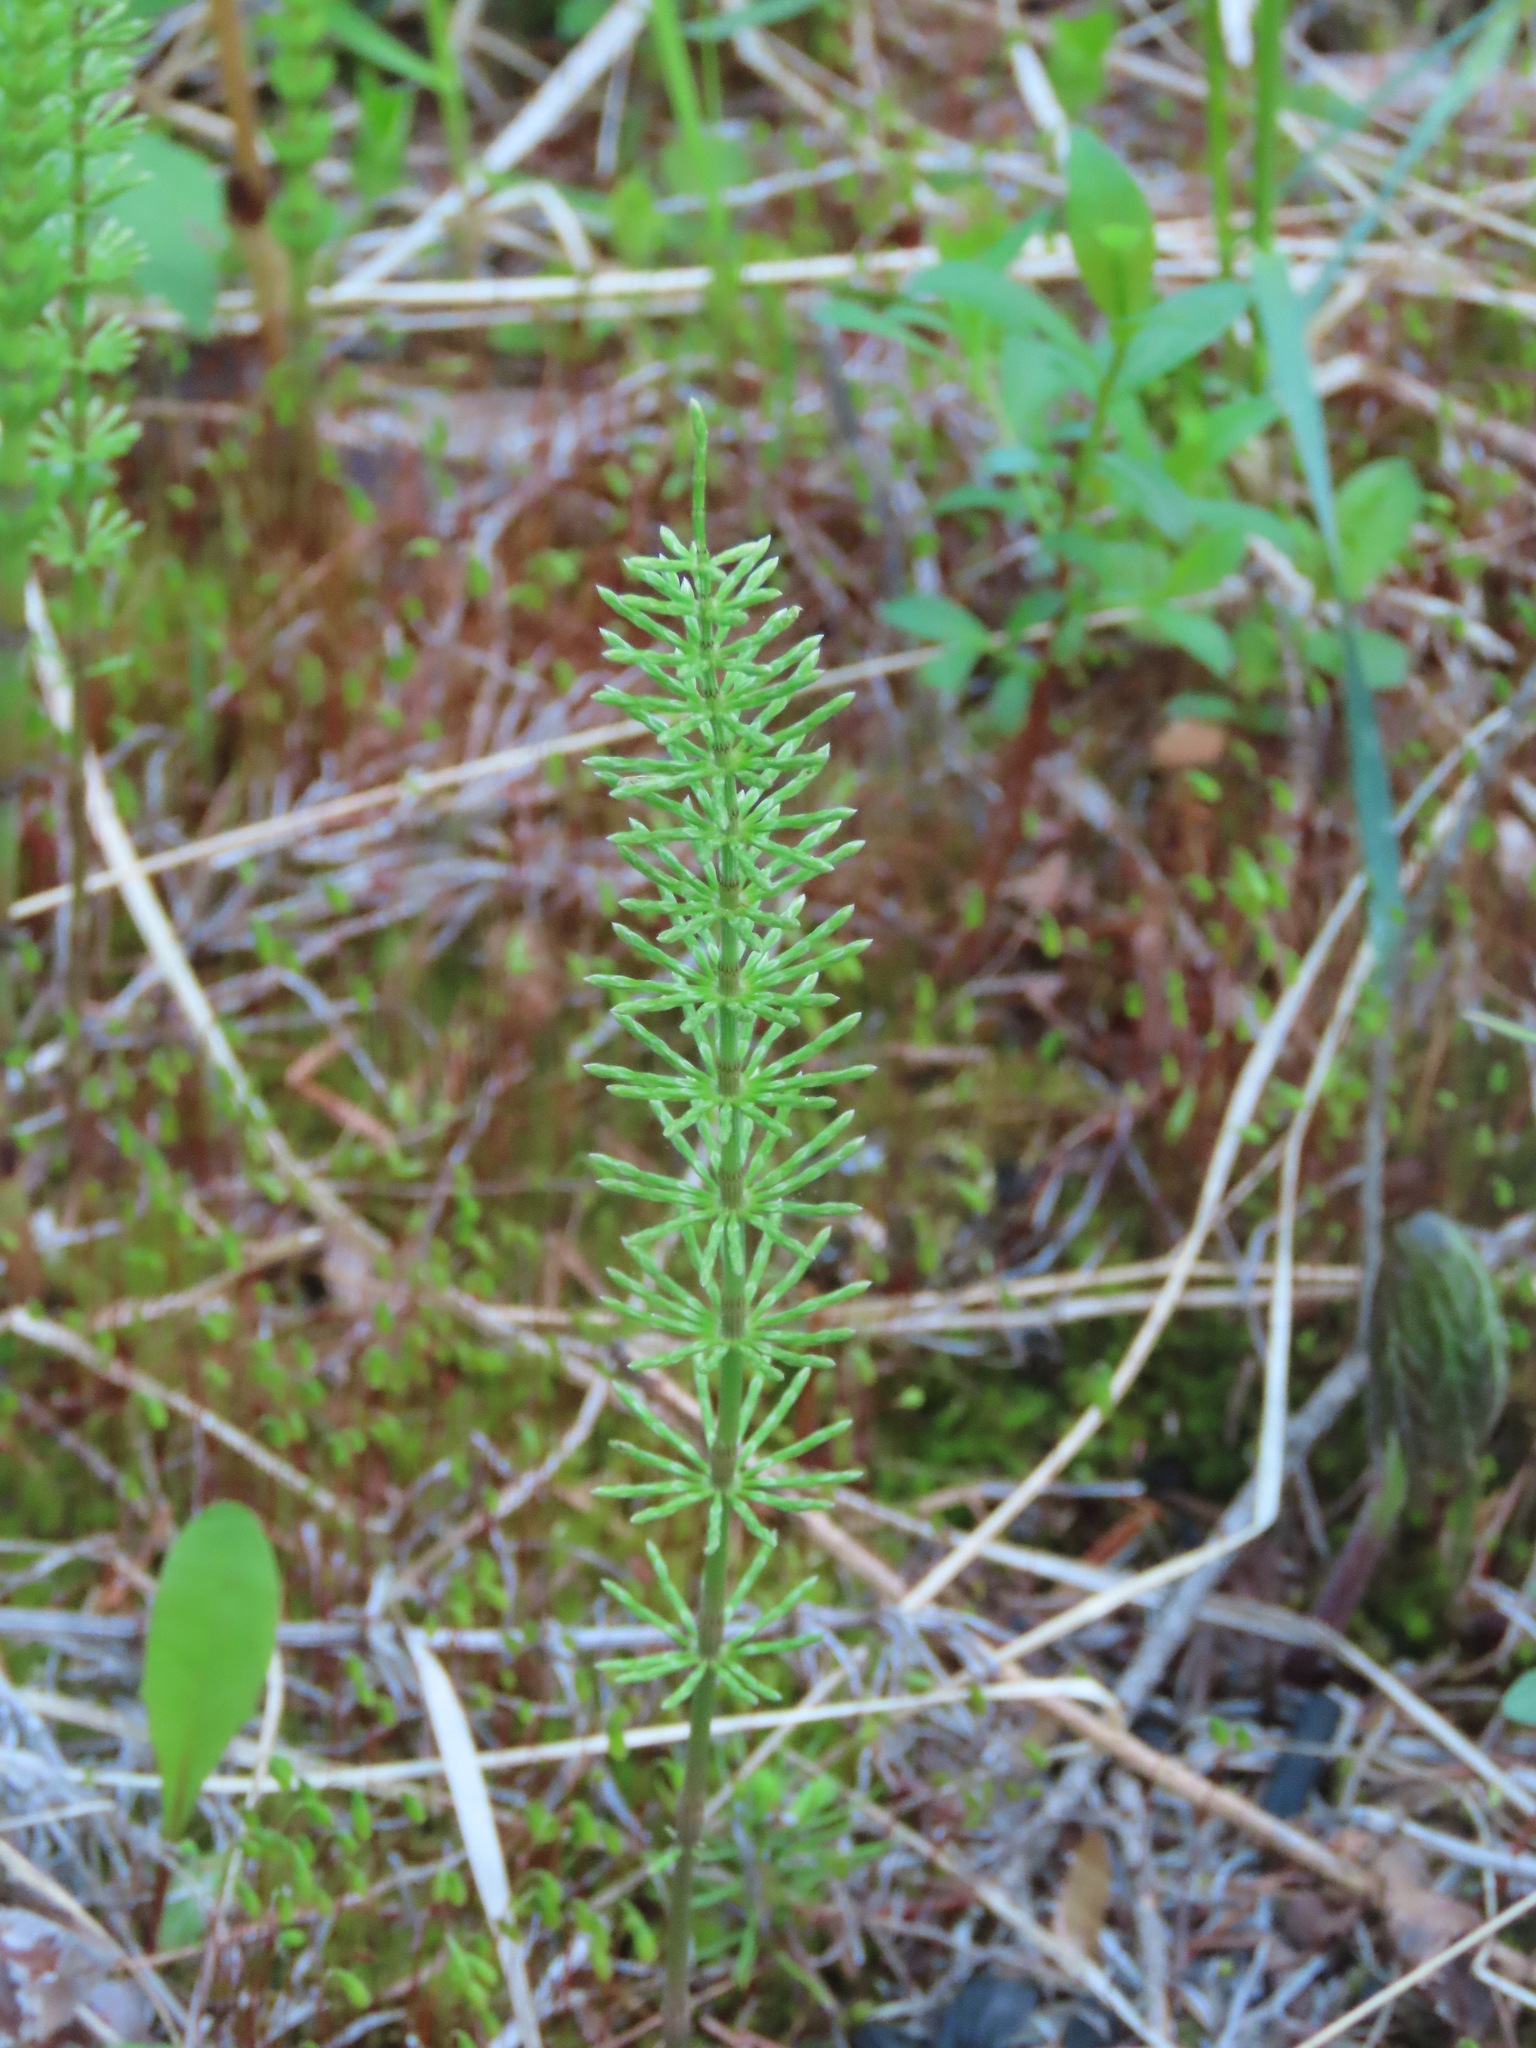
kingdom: Plantae
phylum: Tracheophyta
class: Polypodiopsida
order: Equisetales
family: Equisetaceae
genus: Equisetum
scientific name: Equisetum pratense
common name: Meadow horsetail
